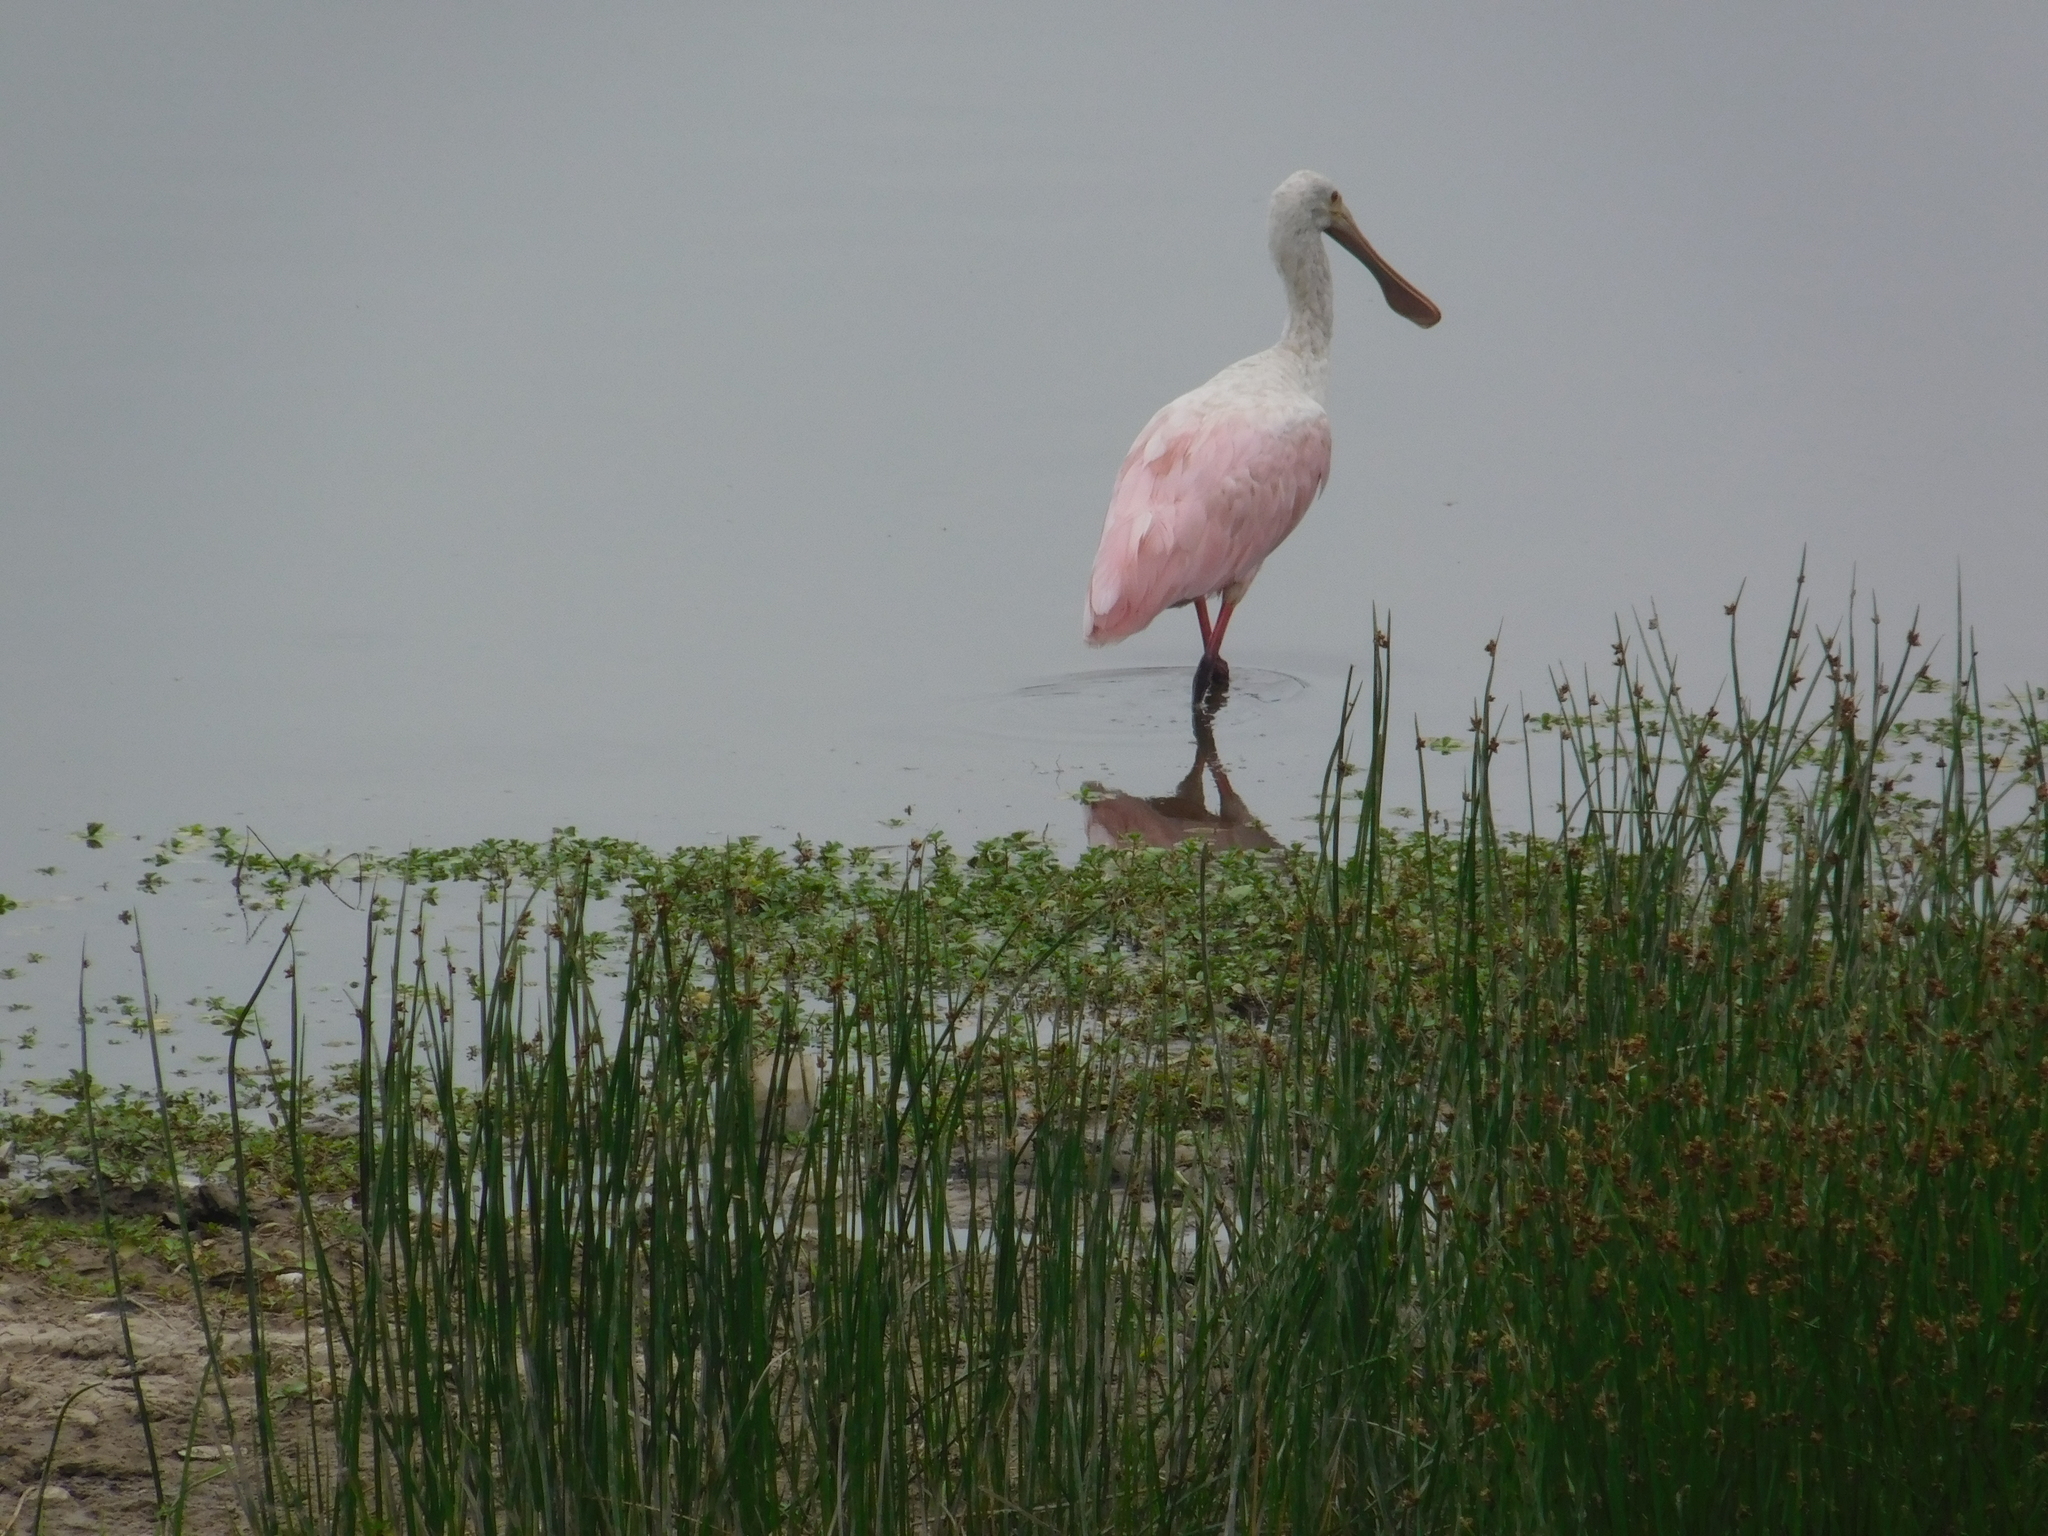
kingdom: Animalia
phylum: Chordata
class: Aves
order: Pelecaniformes
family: Threskiornithidae
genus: Platalea
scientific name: Platalea ajaja
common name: Roseate spoonbill
